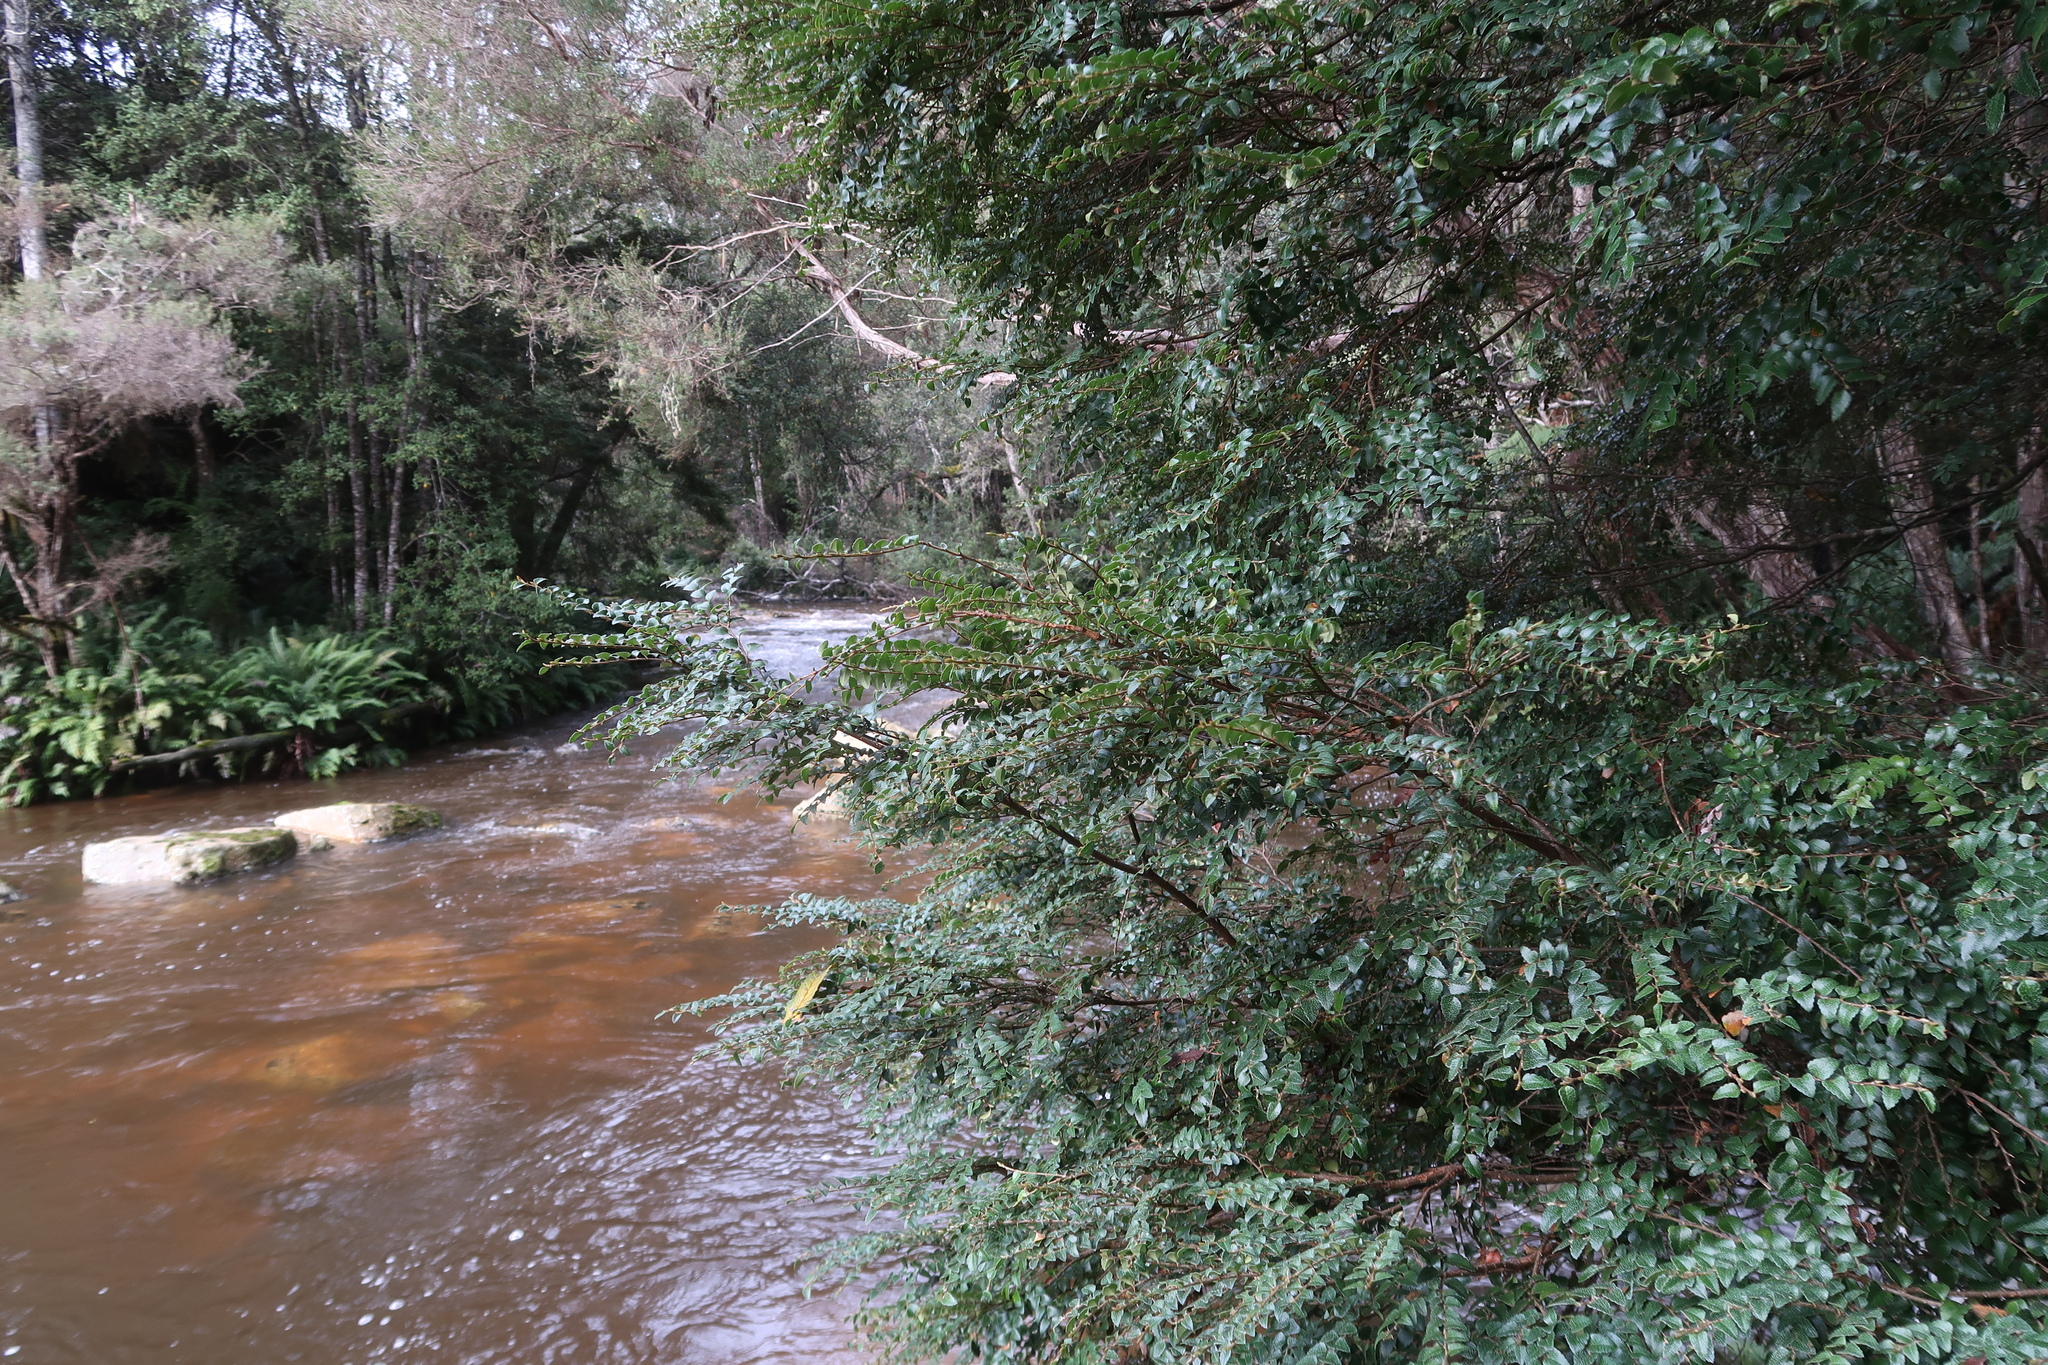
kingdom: Plantae
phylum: Tracheophyta
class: Magnoliopsida
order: Fagales
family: Nothofagaceae
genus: Nothofagus
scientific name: Nothofagus cunninghamii
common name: Myrtle beech
